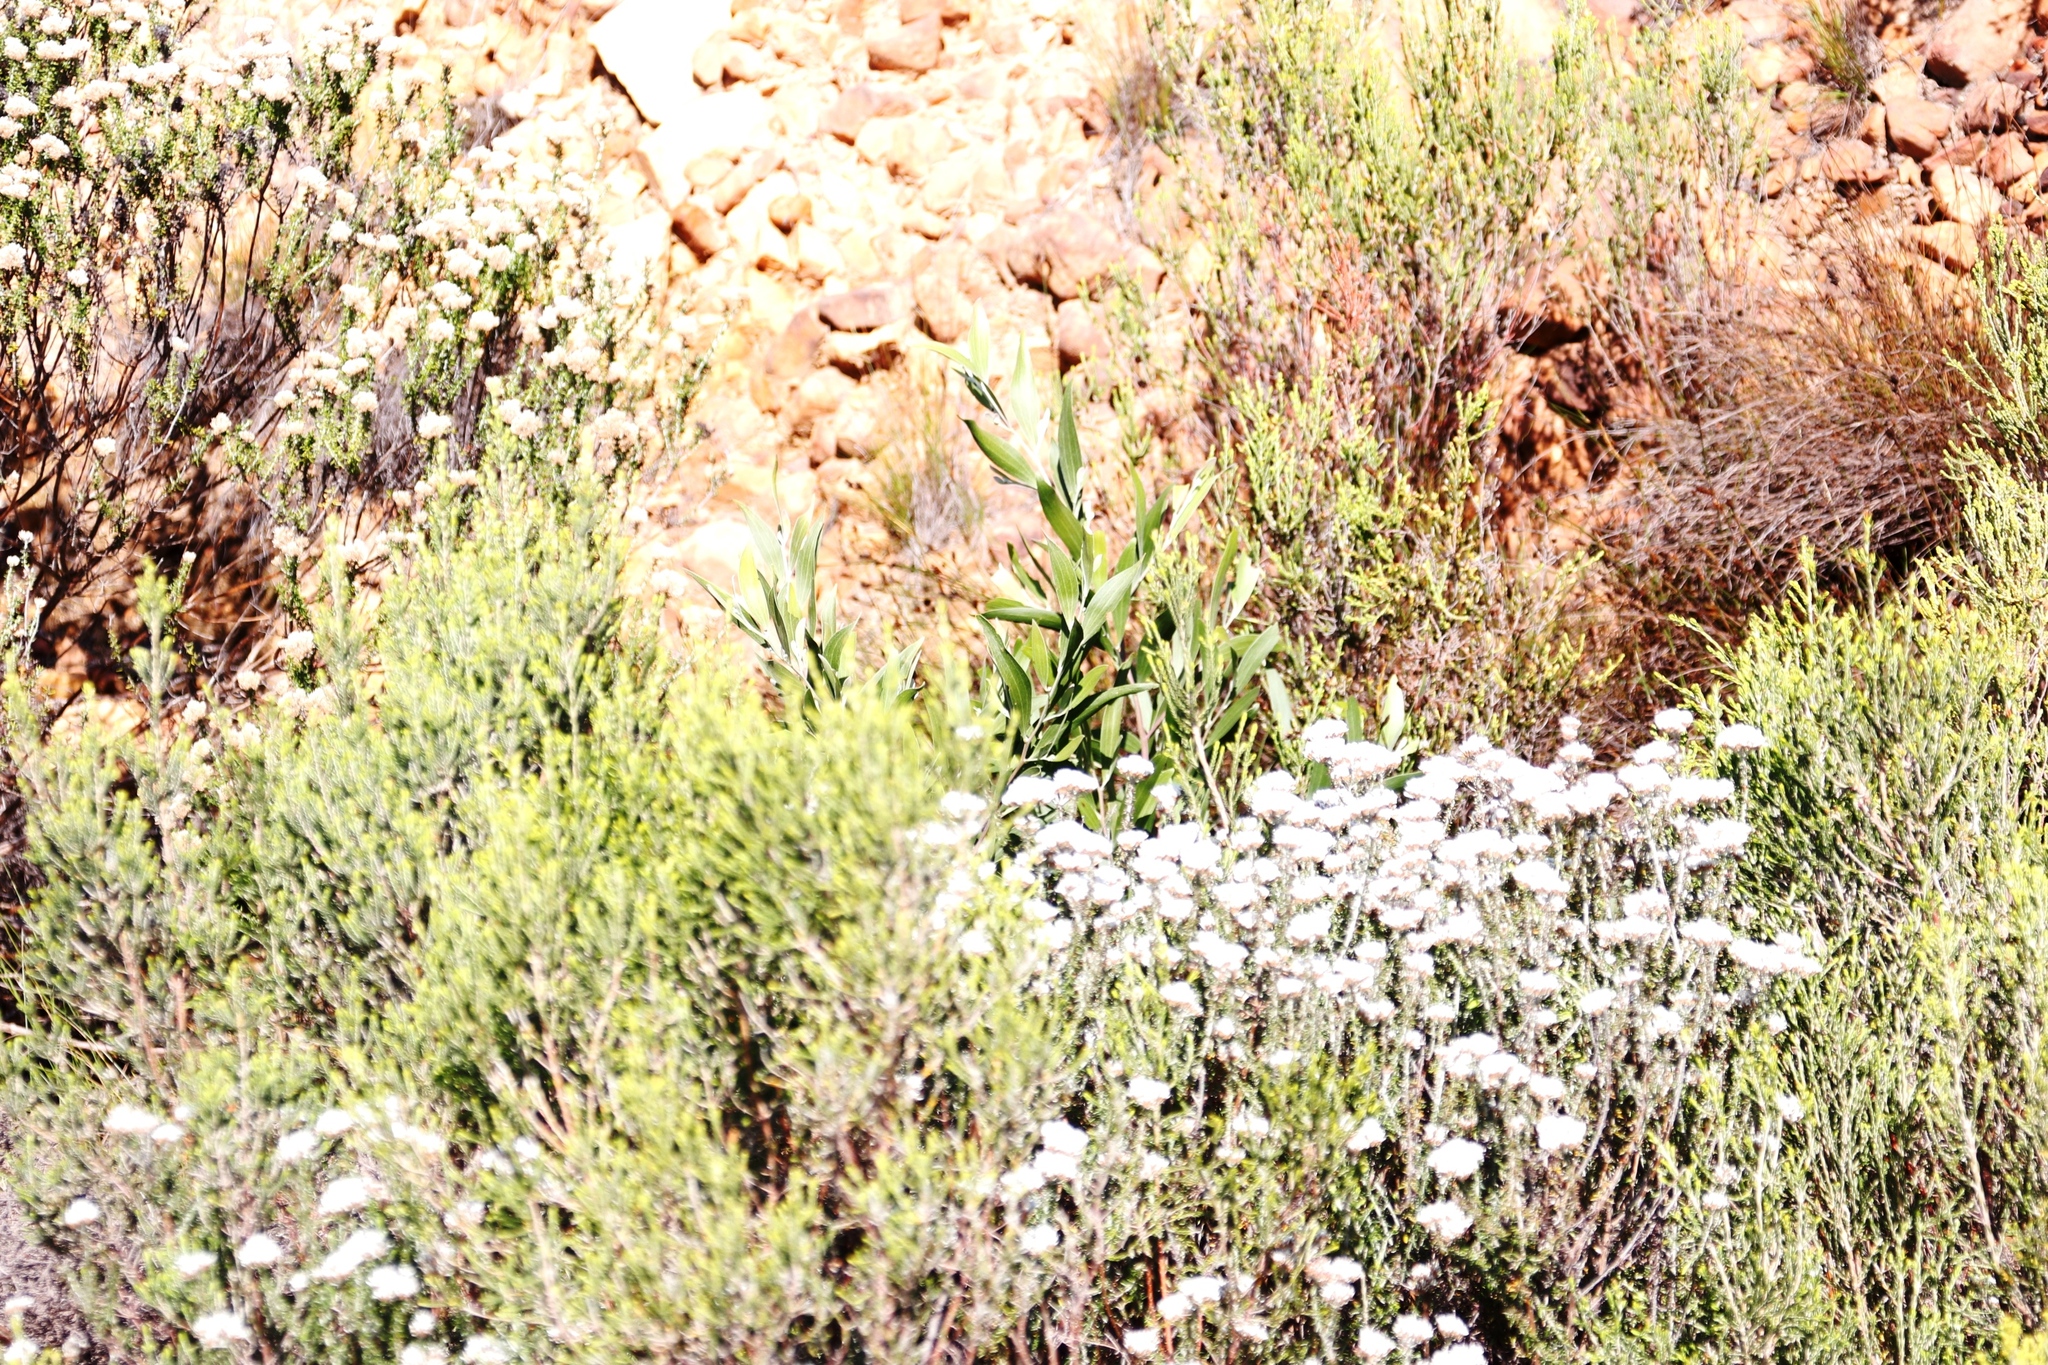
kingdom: Plantae
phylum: Tracheophyta
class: Magnoliopsida
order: Fabales
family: Fabaceae
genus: Acacia
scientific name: Acacia longifolia
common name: Sydney golden wattle
